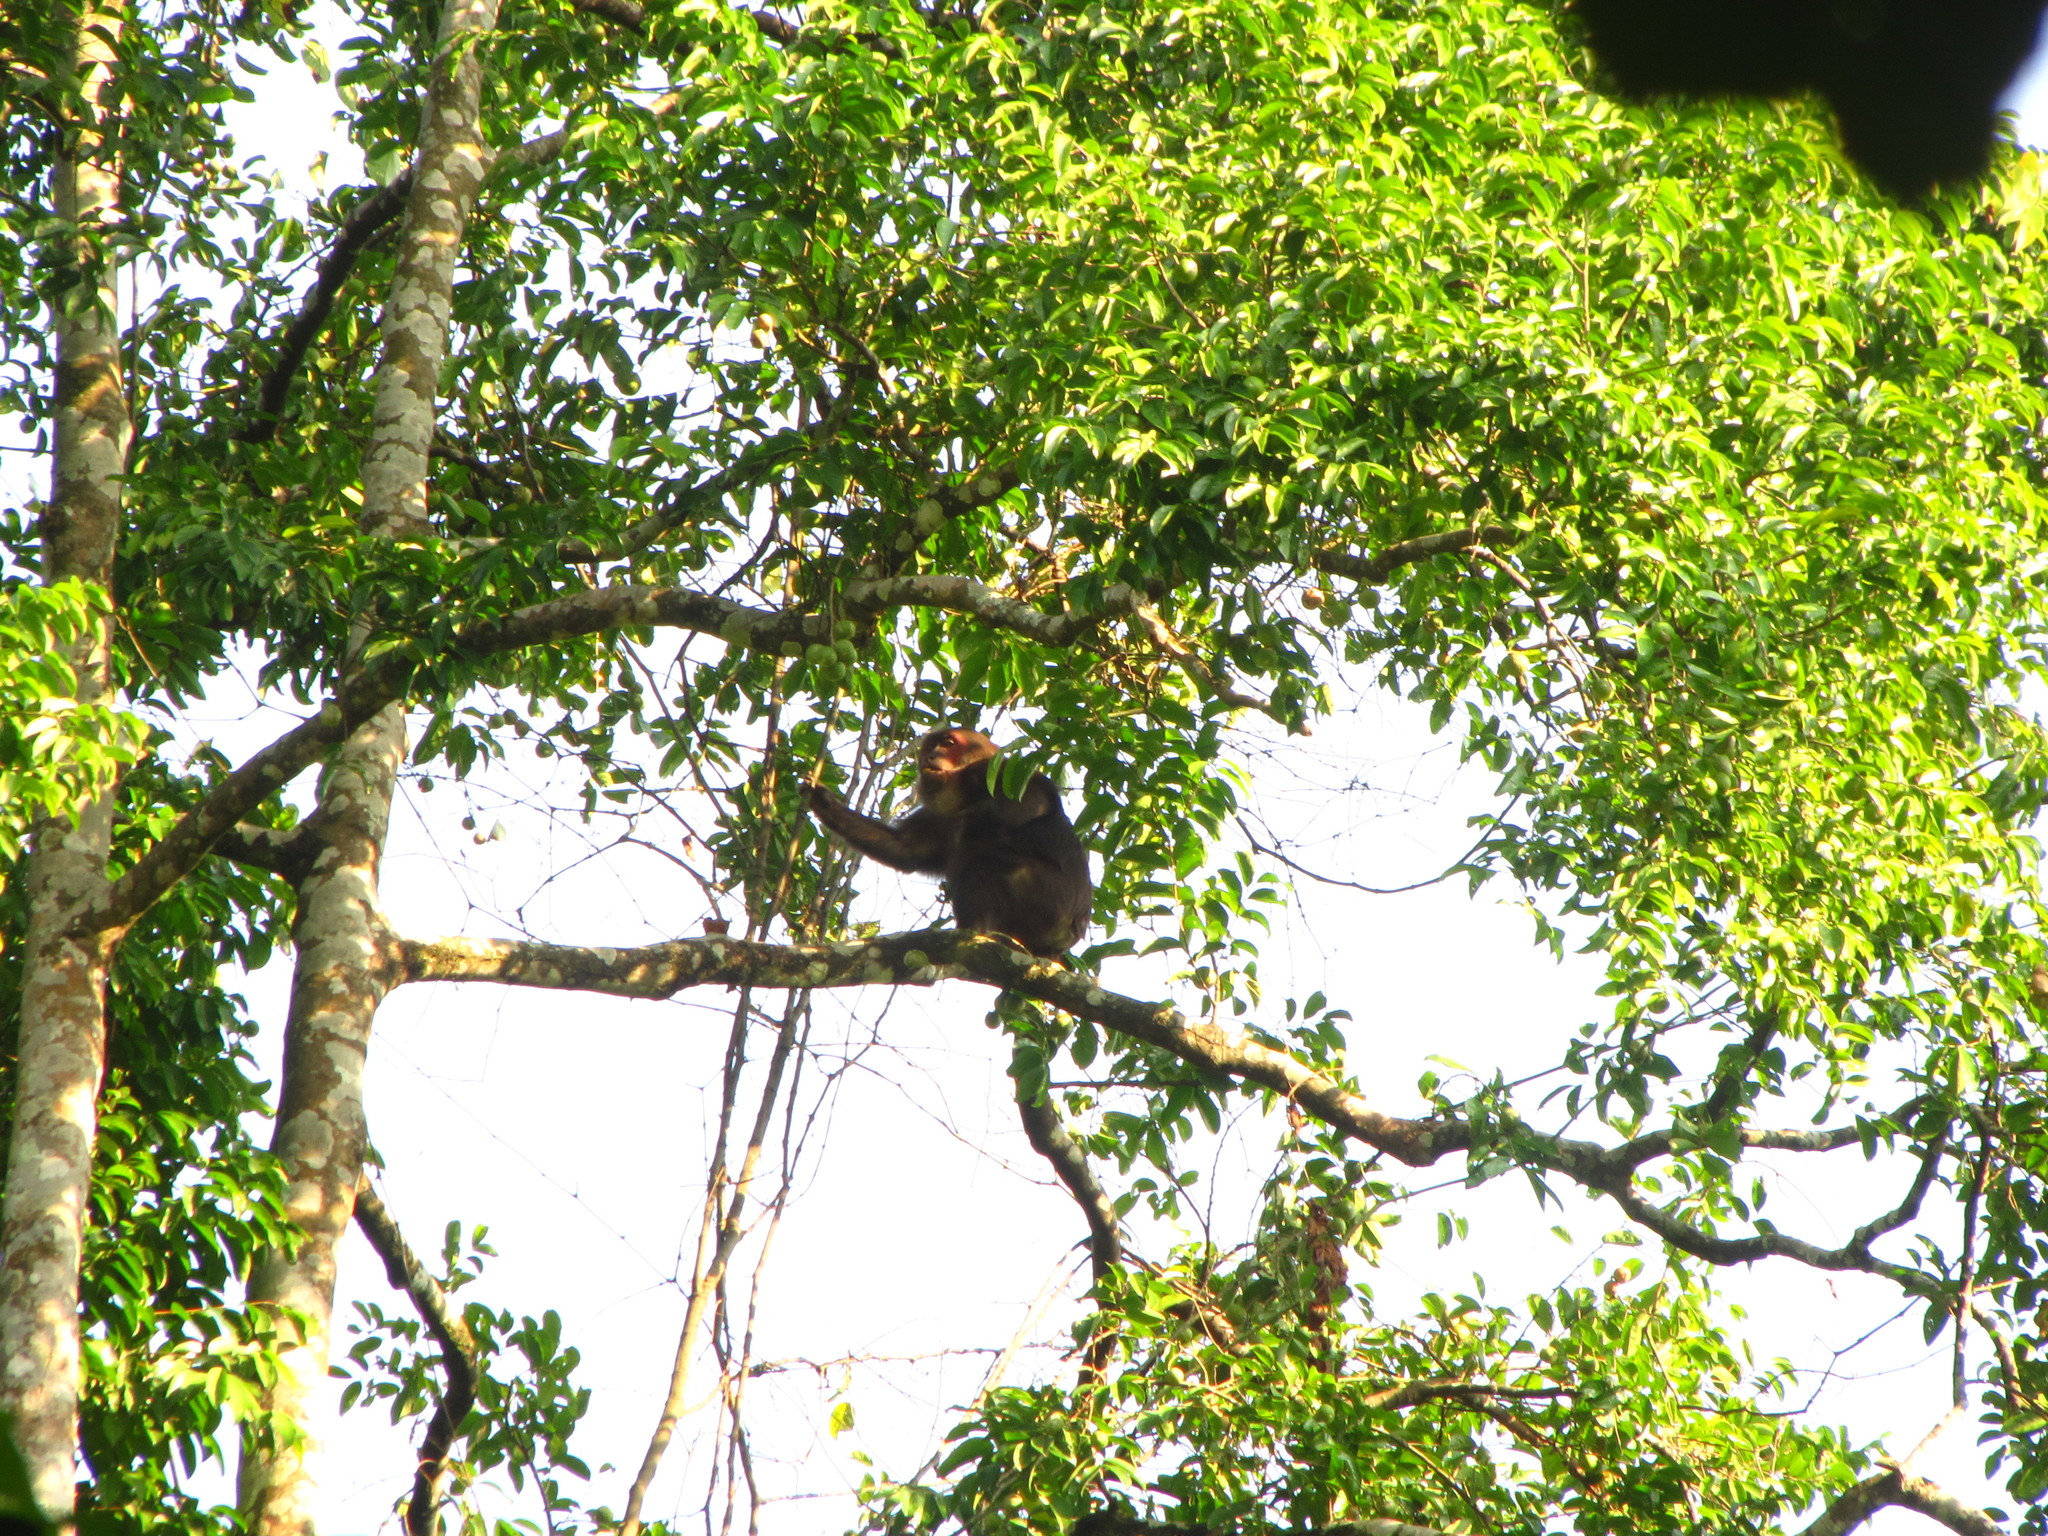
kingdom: Animalia
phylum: Chordata
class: Mammalia
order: Primates
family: Cercopithecidae
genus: Macaca
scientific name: Macaca arctoides
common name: Stump-tailed macaque
